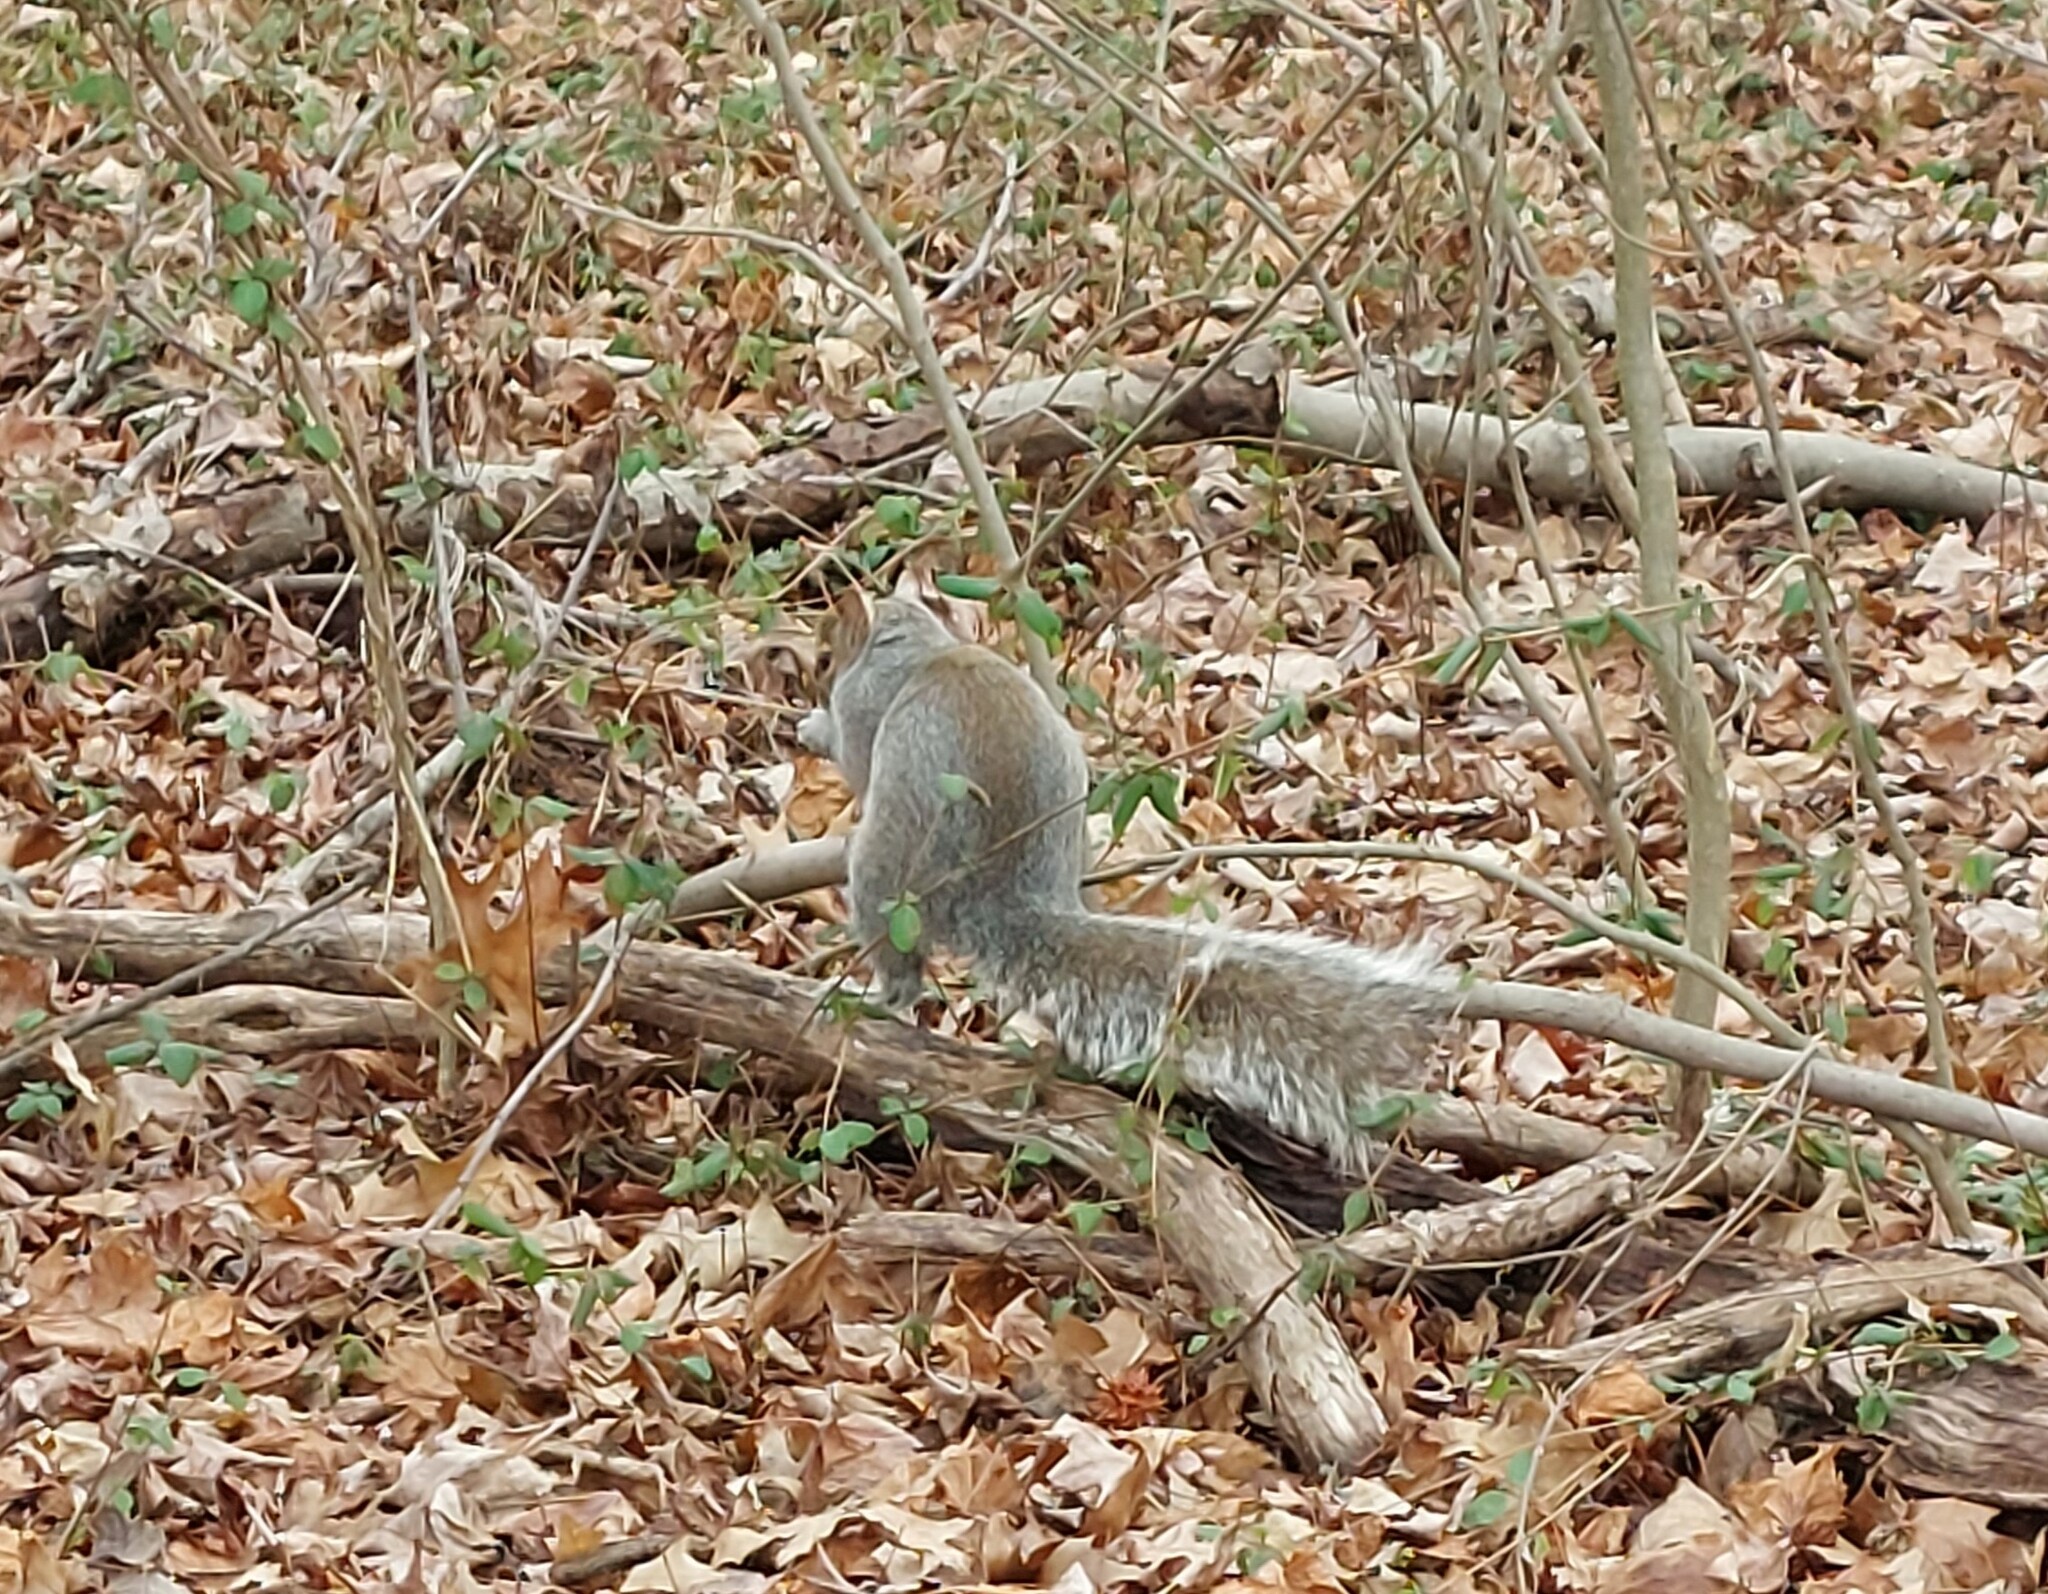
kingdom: Animalia
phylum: Chordata
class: Mammalia
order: Rodentia
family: Sciuridae
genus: Sciurus
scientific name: Sciurus carolinensis
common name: Eastern gray squirrel
